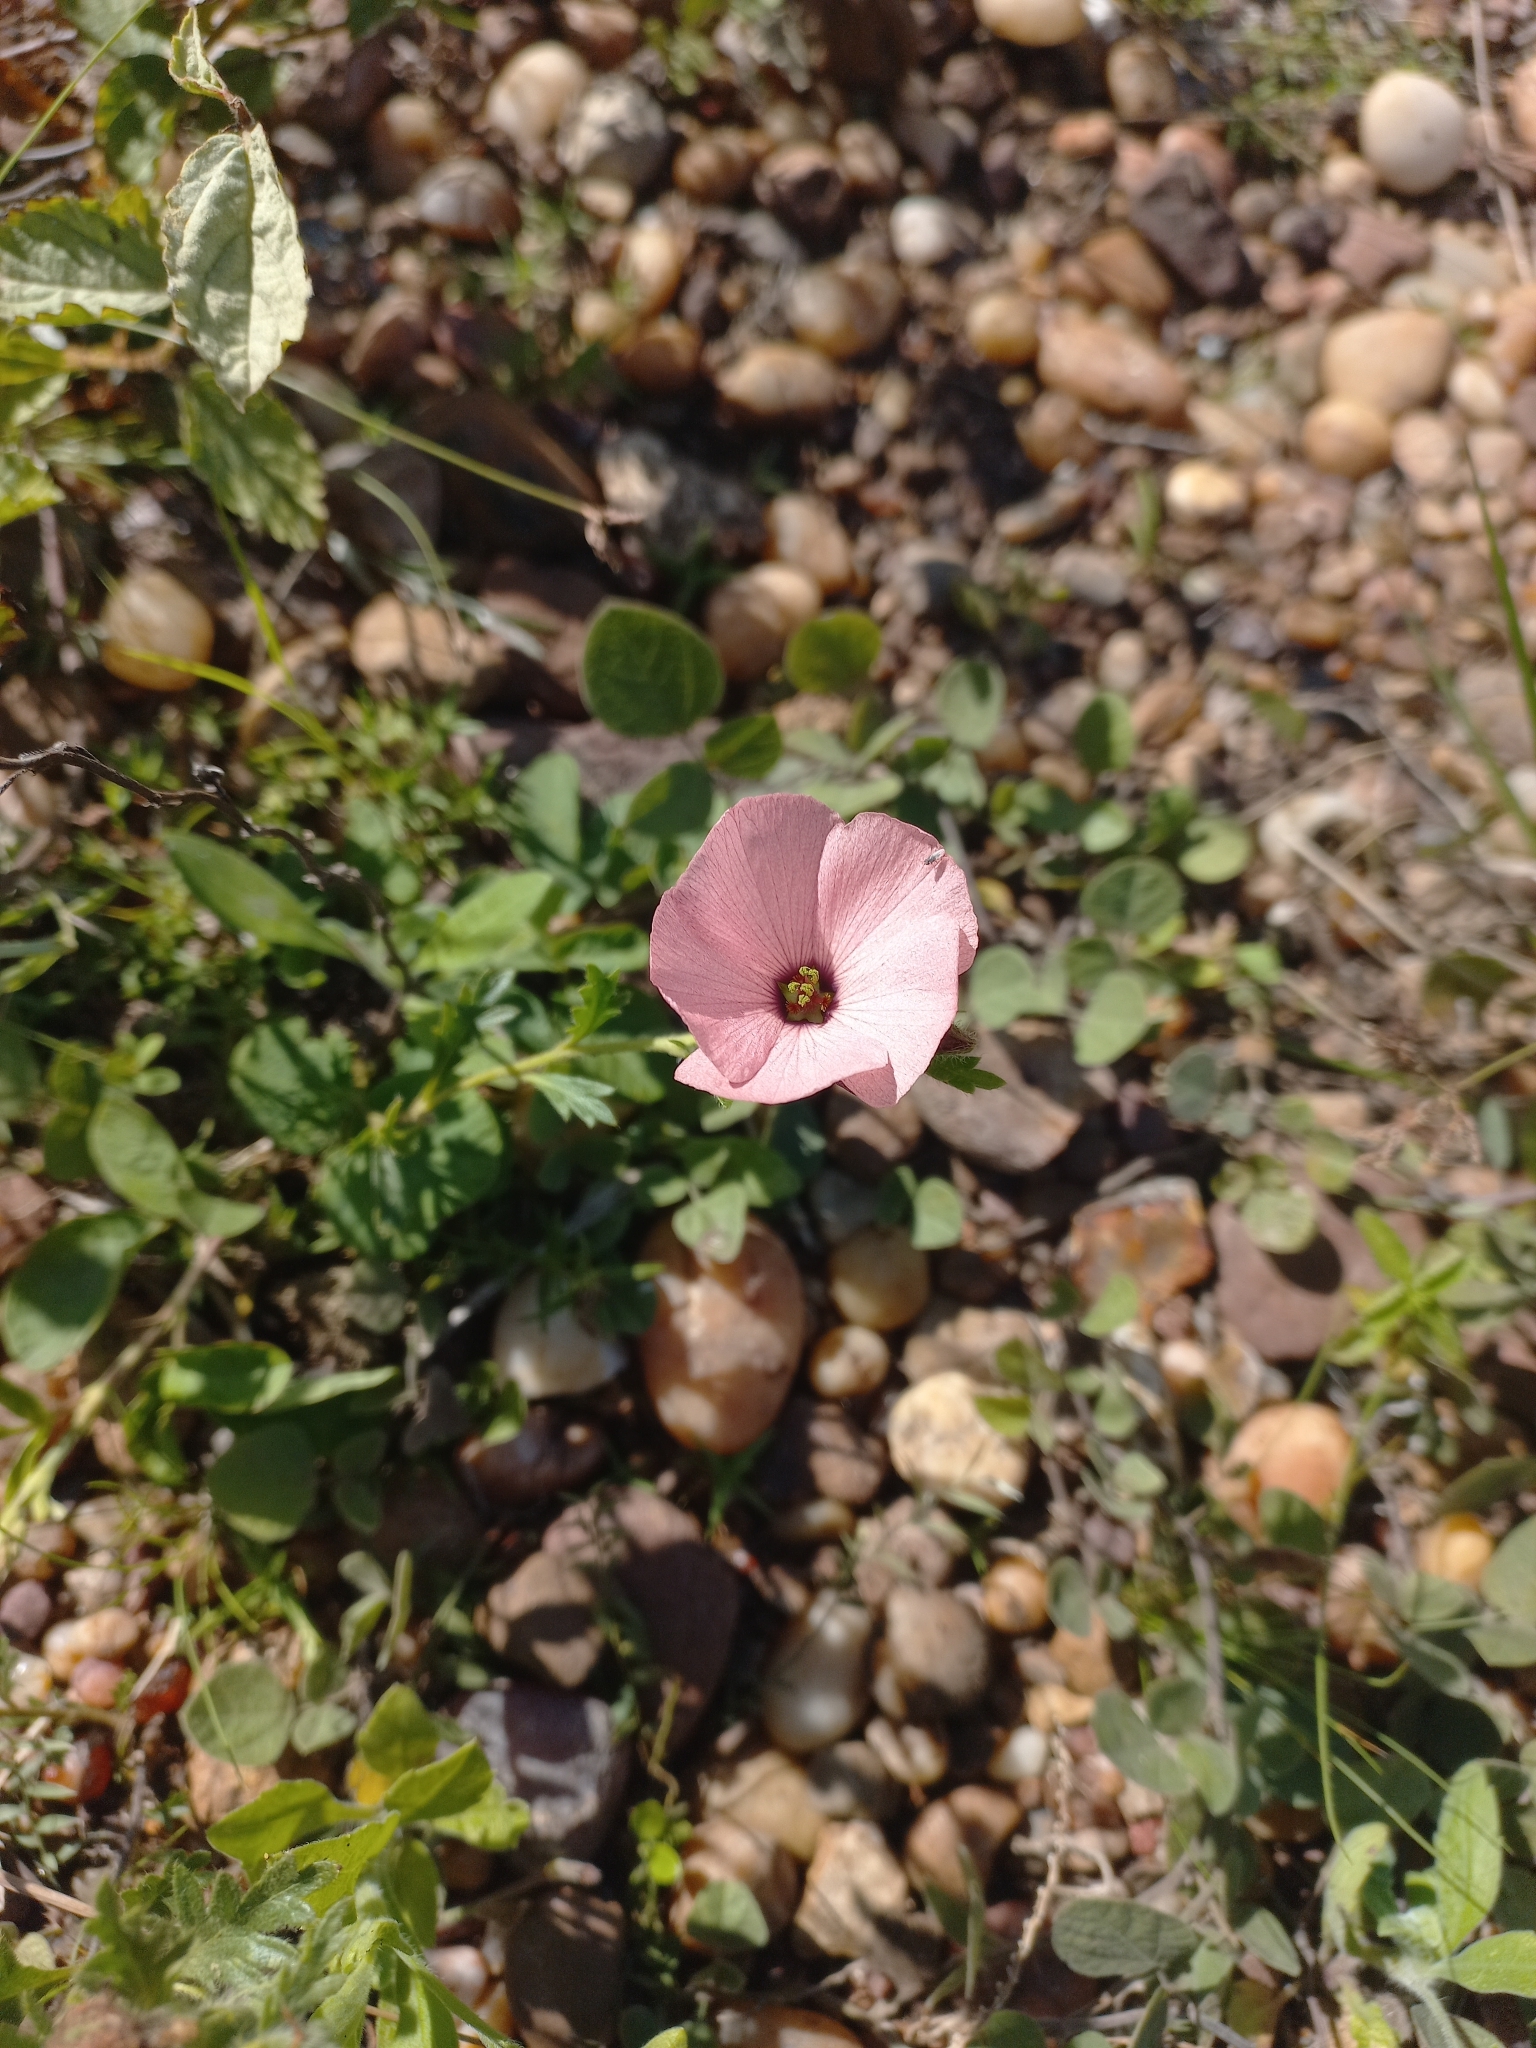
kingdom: Plantae
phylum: Tracheophyta
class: Magnoliopsida
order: Malpighiales
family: Turneraceae
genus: Turnera
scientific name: Turnera sidoides
